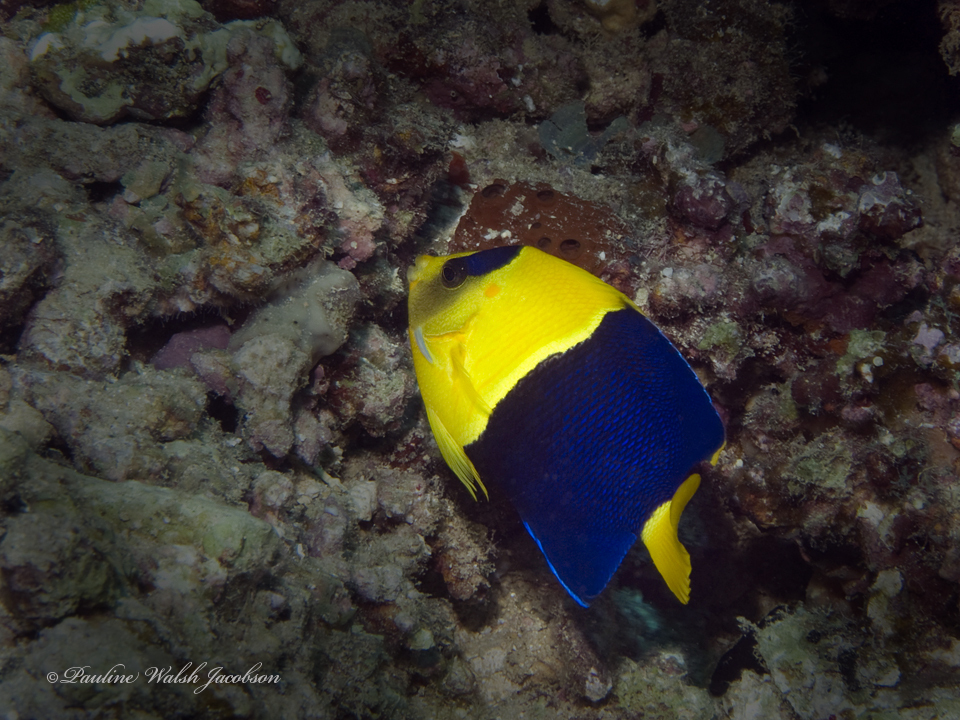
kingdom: Animalia
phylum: Chordata
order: Perciformes
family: Pomacanthidae
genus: Centropyge
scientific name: Centropyge bicolor
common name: Bicolor angelfish
